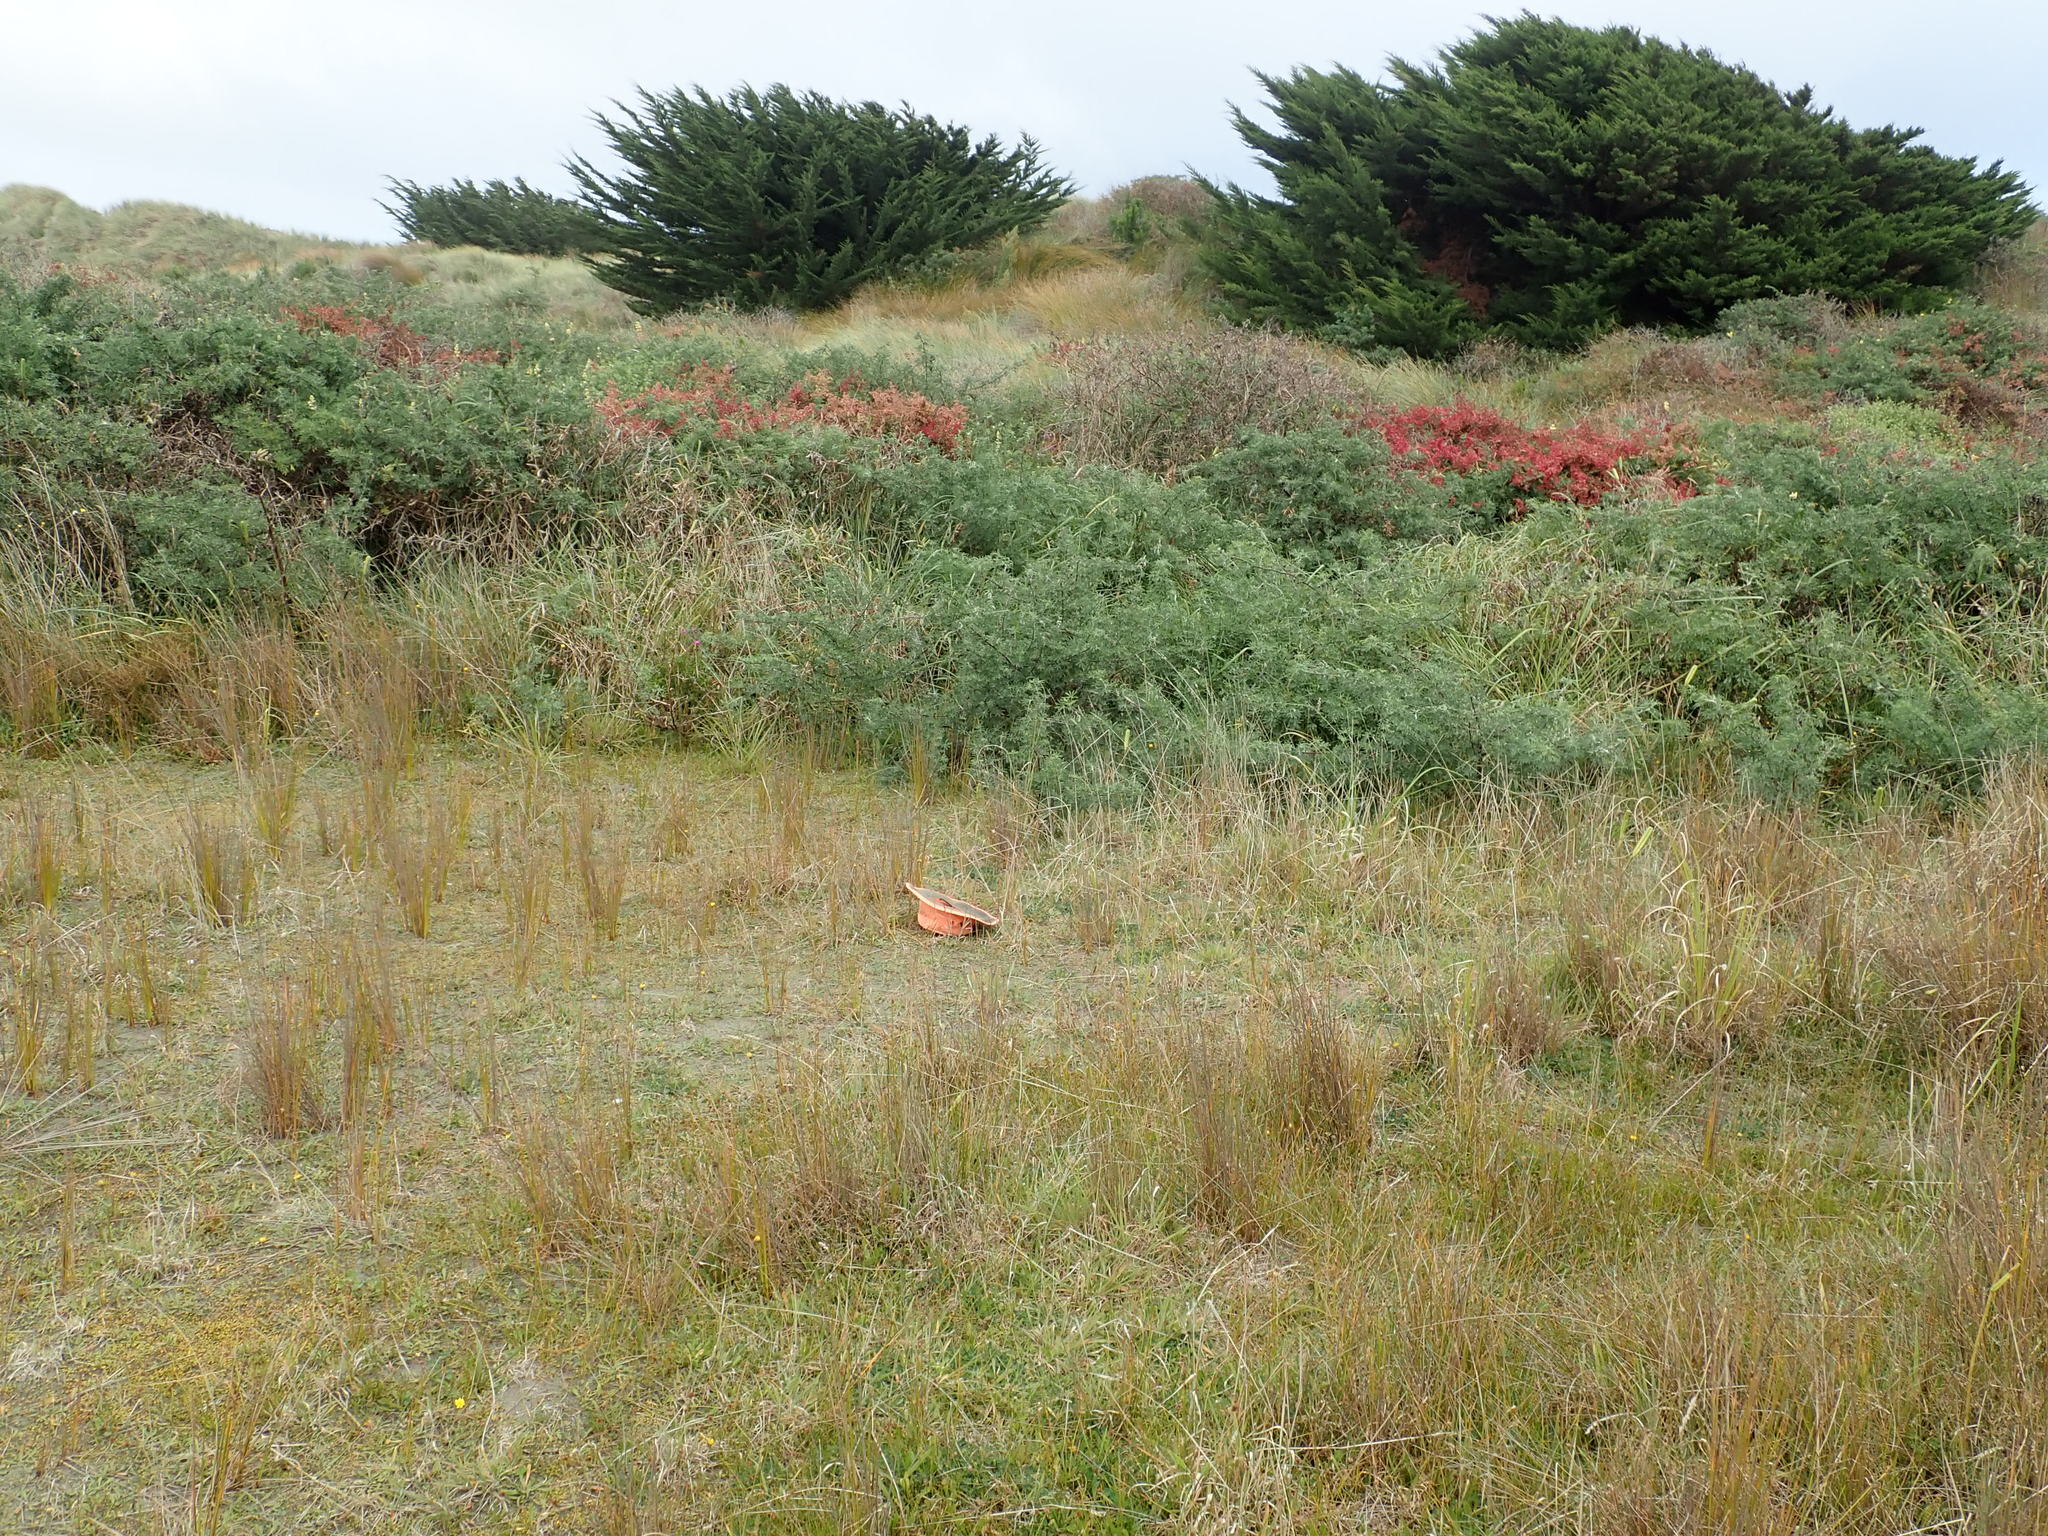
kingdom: Plantae
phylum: Tracheophyta
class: Magnoliopsida
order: Asterales
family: Campanulaceae
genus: Lobelia
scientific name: Lobelia anceps
